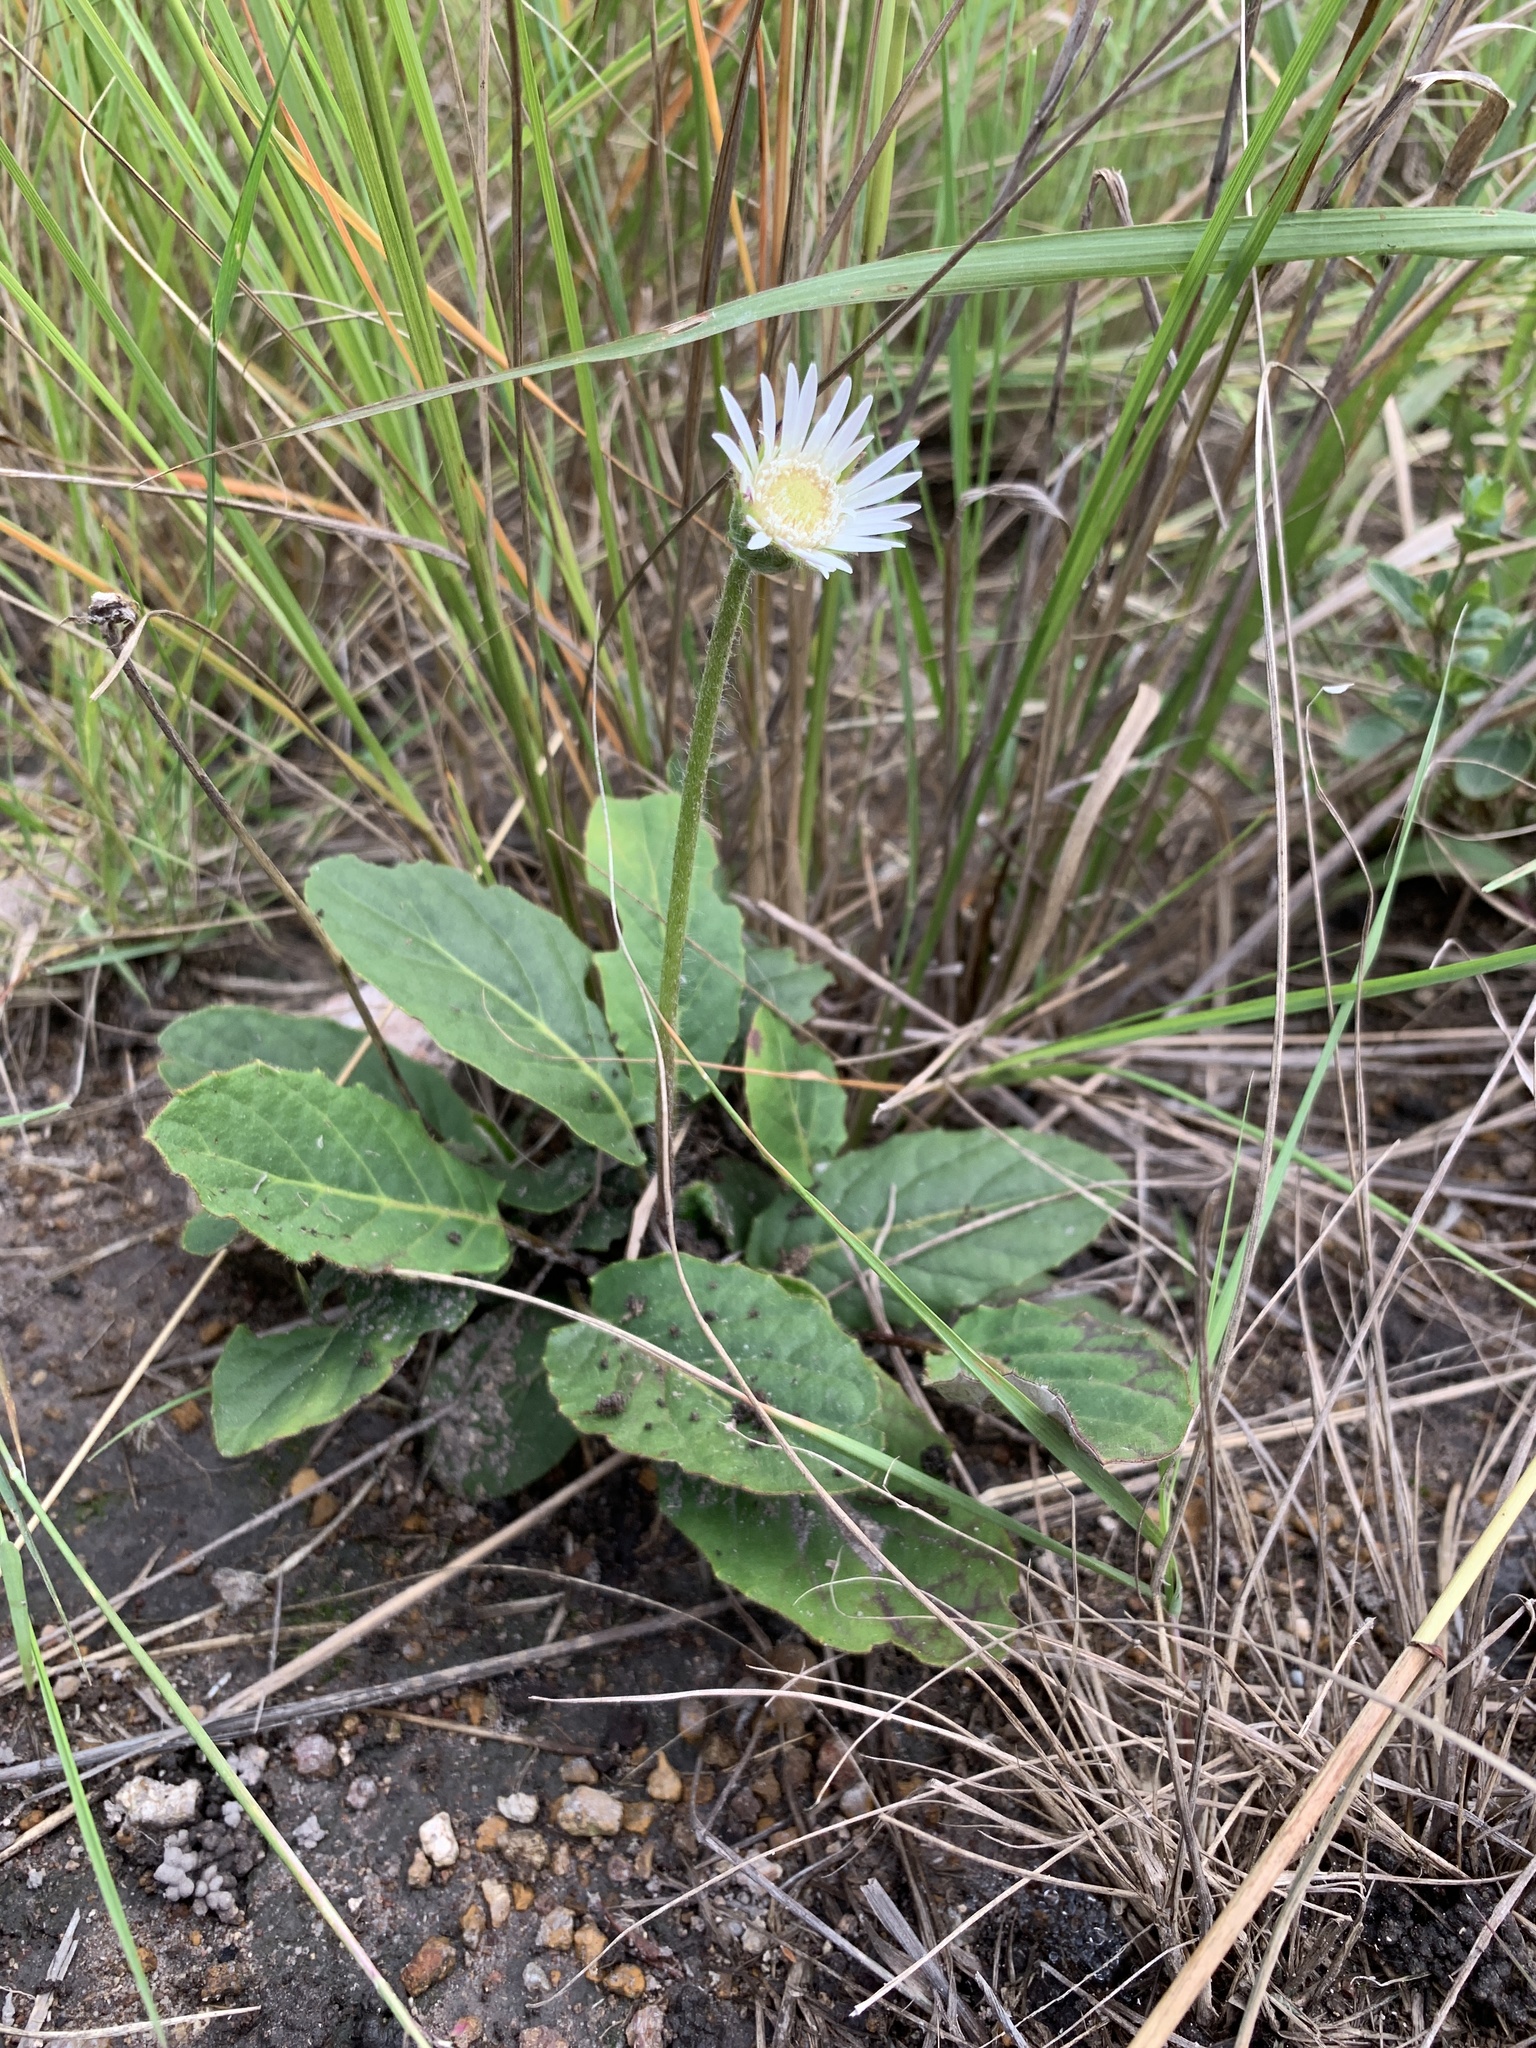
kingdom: Plantae
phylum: Tracheophyta
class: Magnoliopsida
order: Asterales
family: Asteraceae
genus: Gerbera
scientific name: Gerbera ambigua
